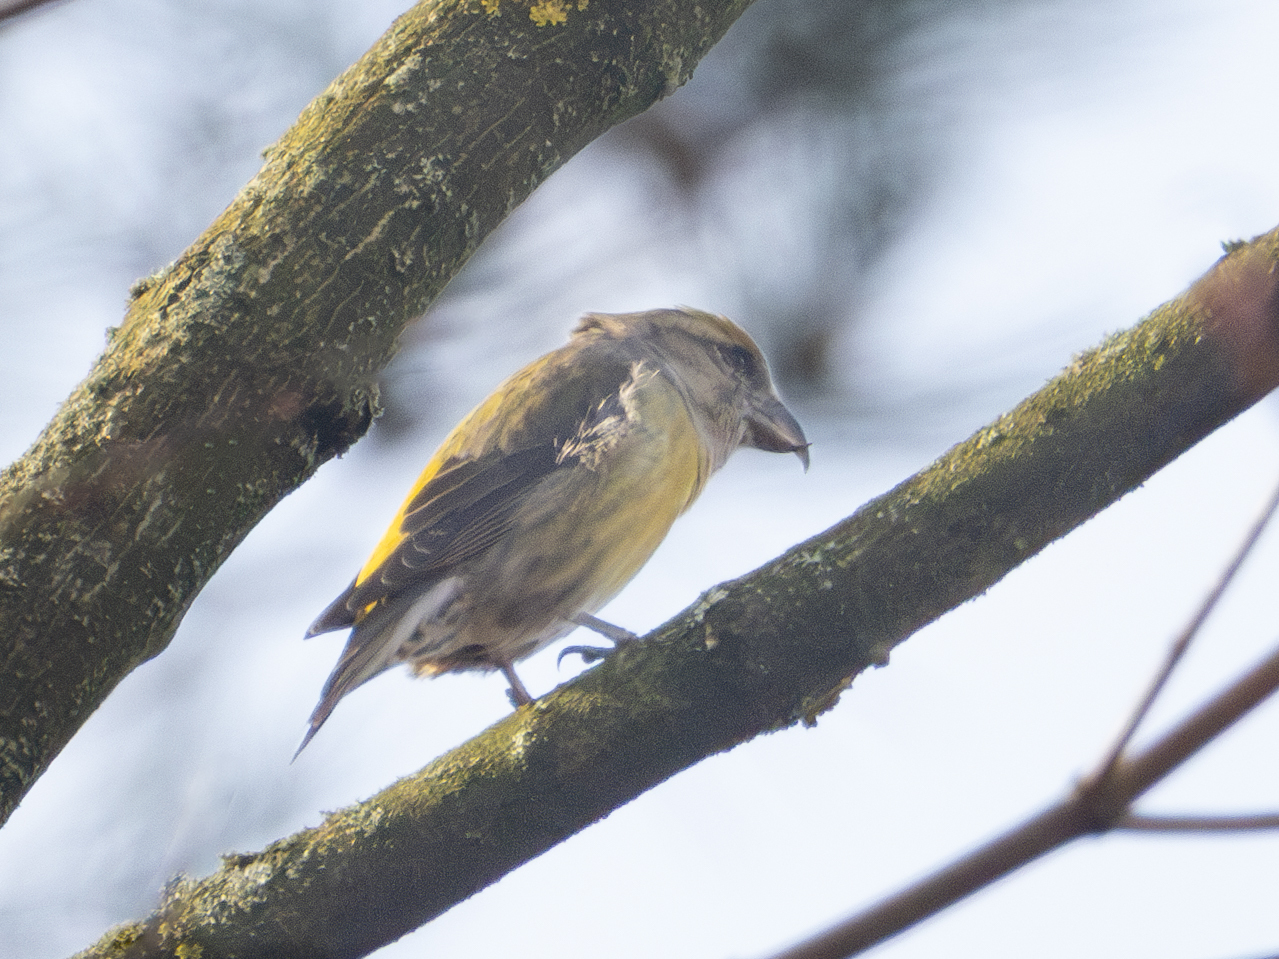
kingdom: Animalia
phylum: Chordata
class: Aves
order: Passeriformes
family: Fringillidae
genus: Loxia
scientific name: Loxia curvirostra
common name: Red crossbill
